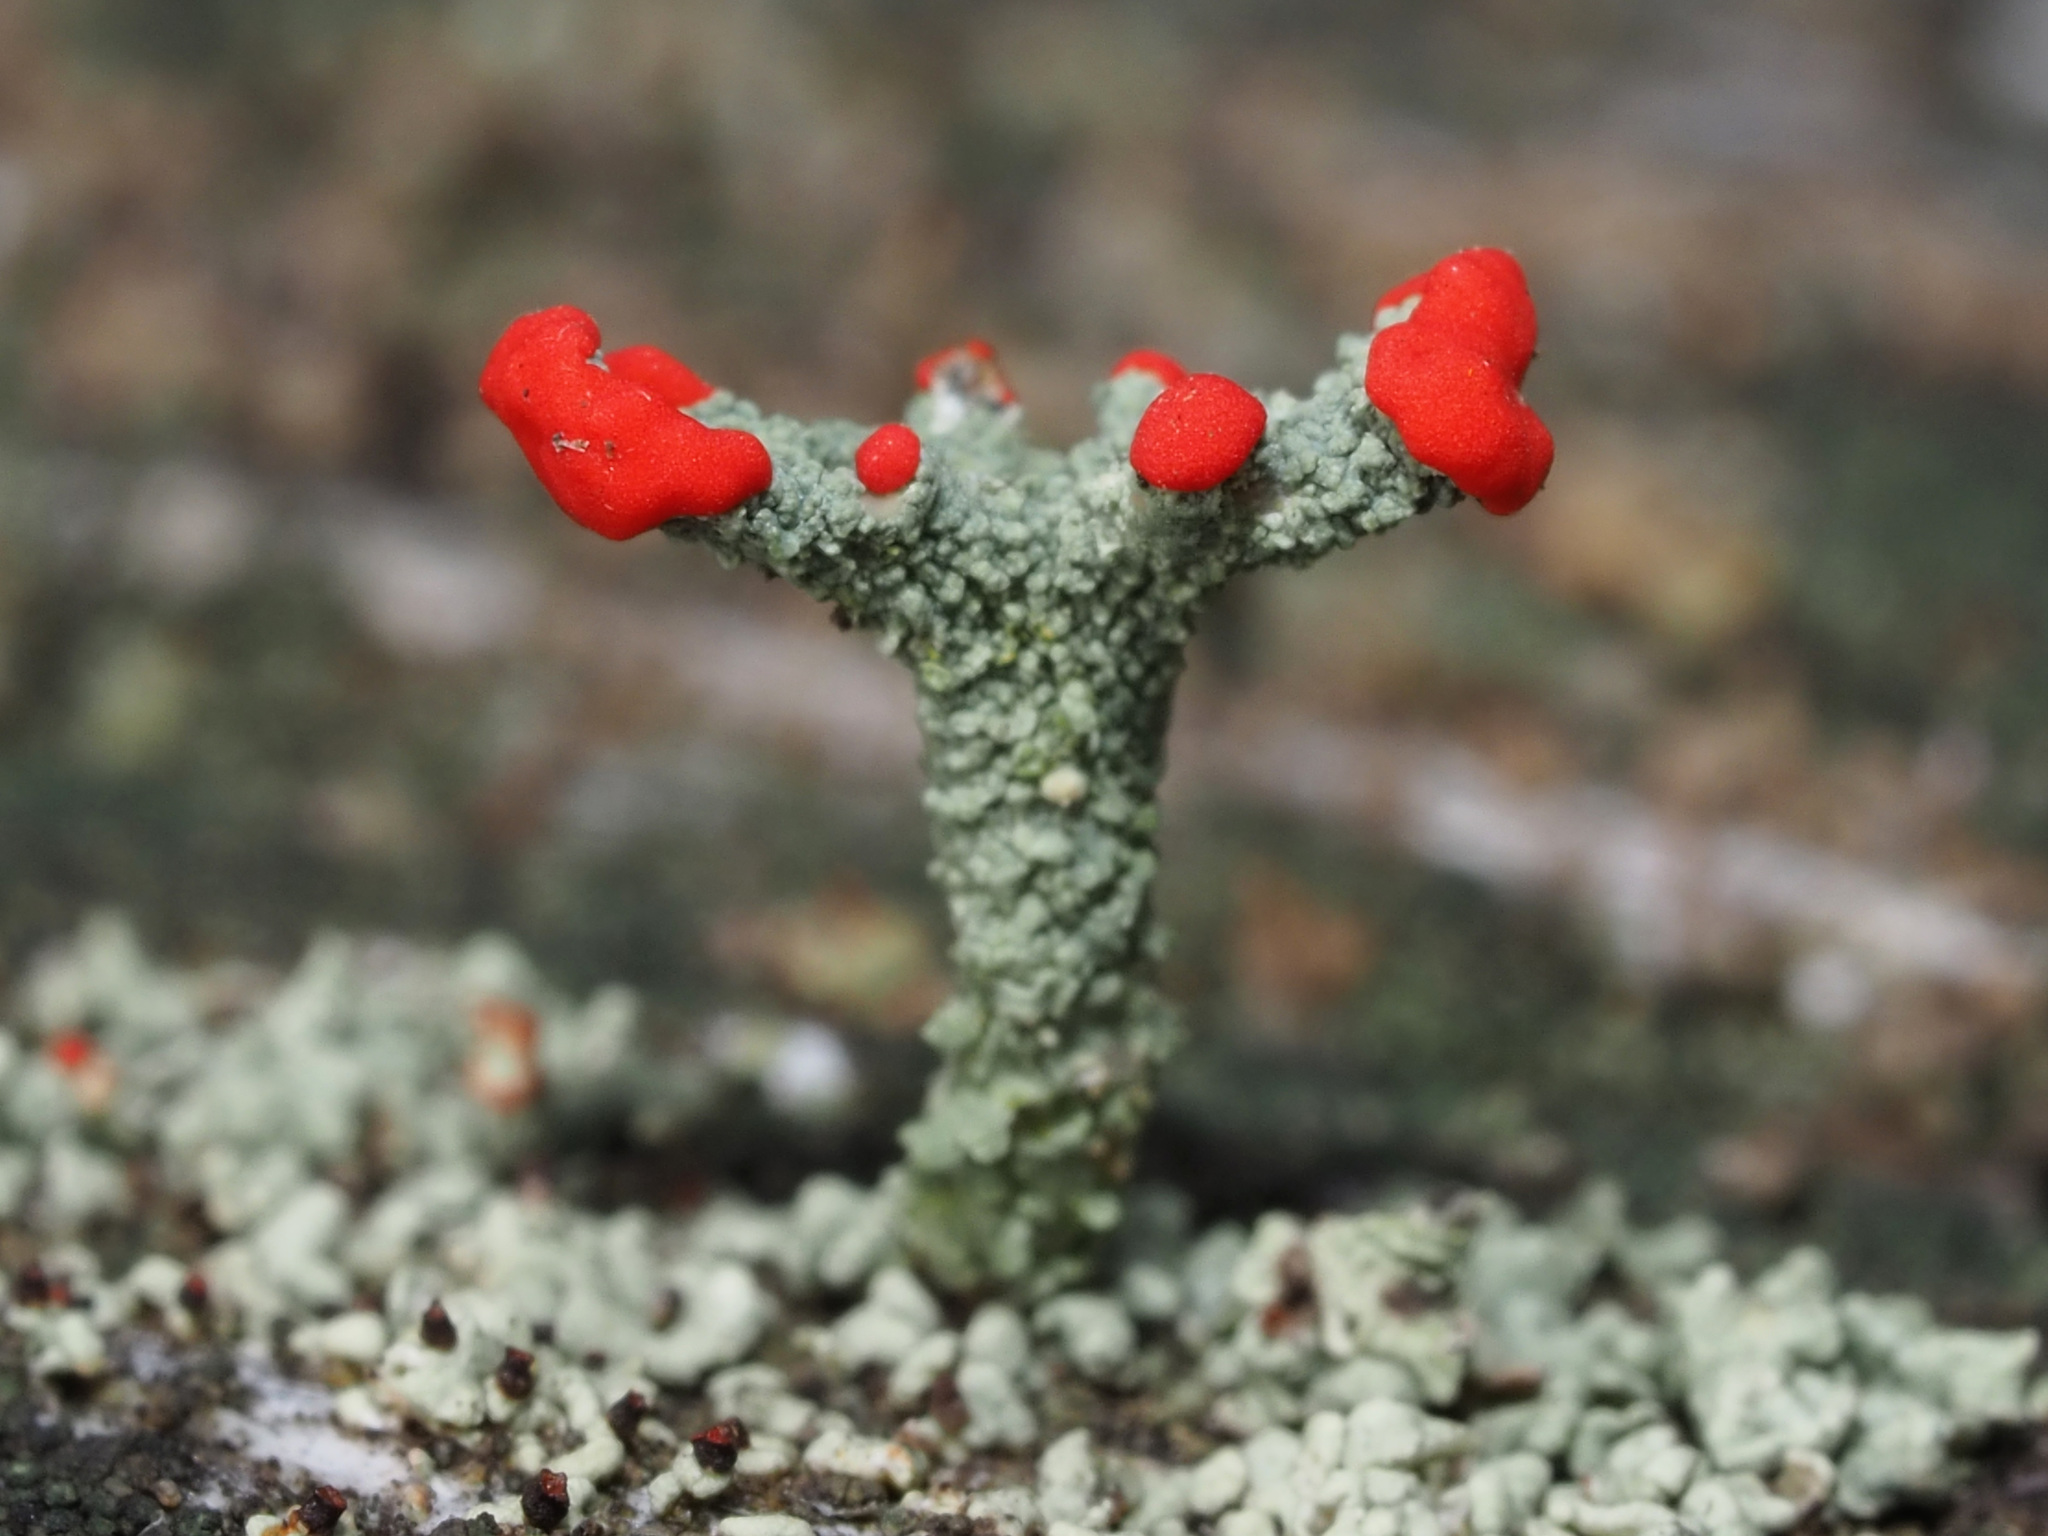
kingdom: Fungi
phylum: Ascomycota
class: Lecanoromycetes
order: Lecanorales
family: Cladoniaceae
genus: Cladonia
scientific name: Cladonia macilenta
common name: Lipstick powderhorn
